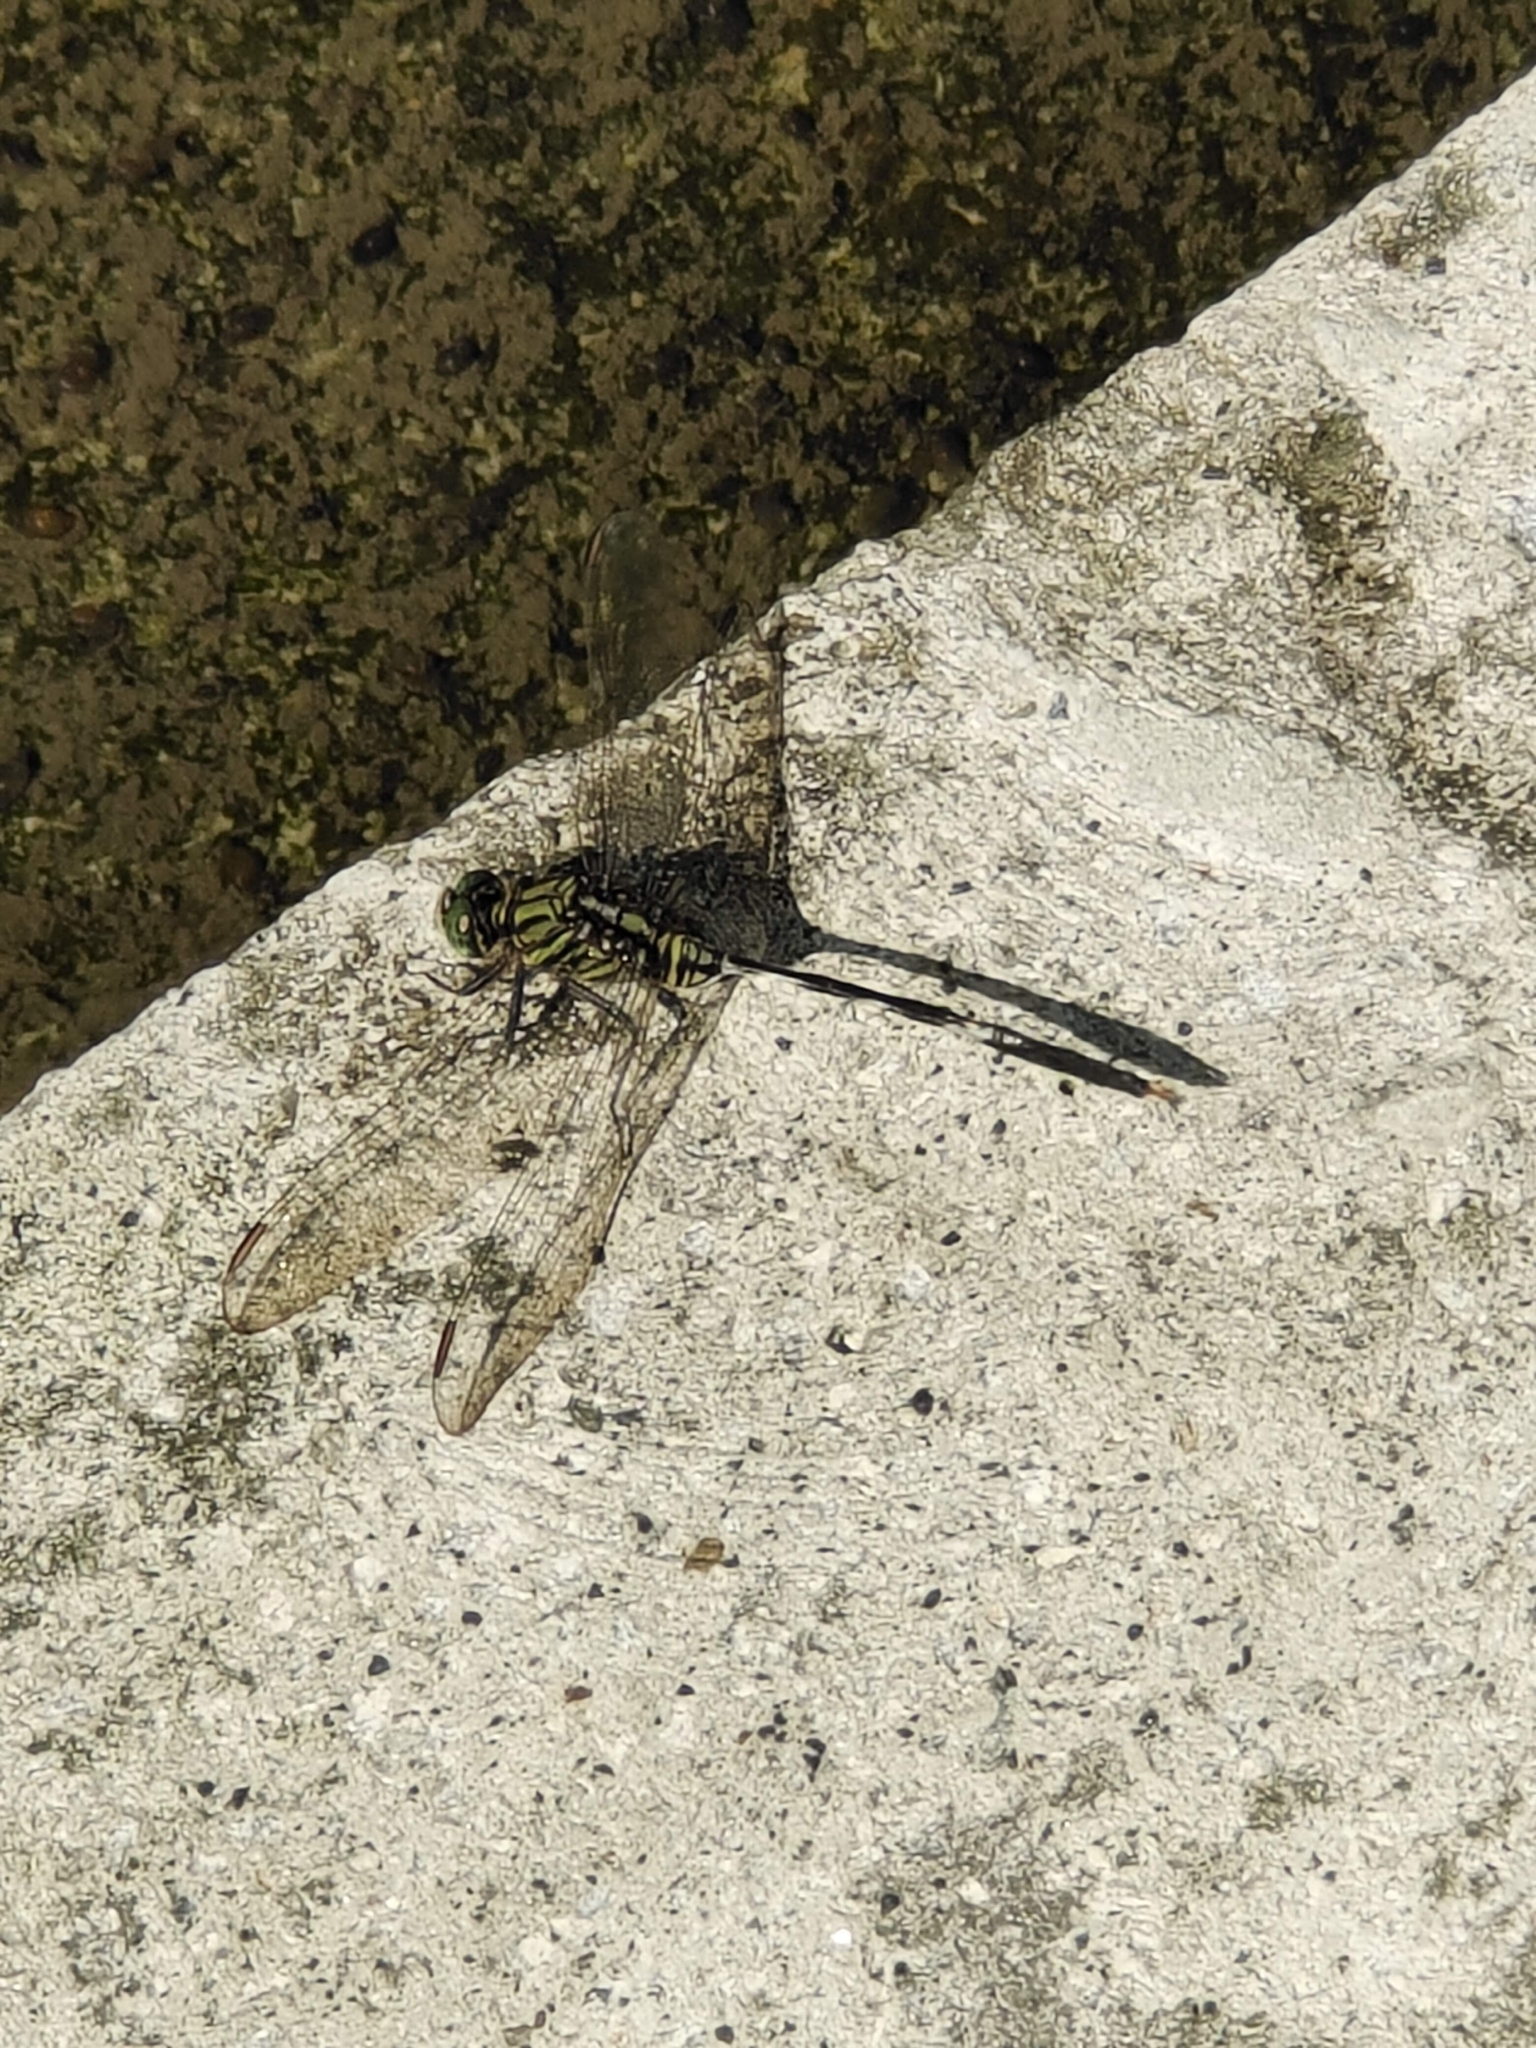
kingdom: Animalia
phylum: Arthropoda
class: Insecta
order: Odonata
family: Libellulidae
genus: Orthetrum
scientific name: Orthetrum sabina
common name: Slender skimmer
